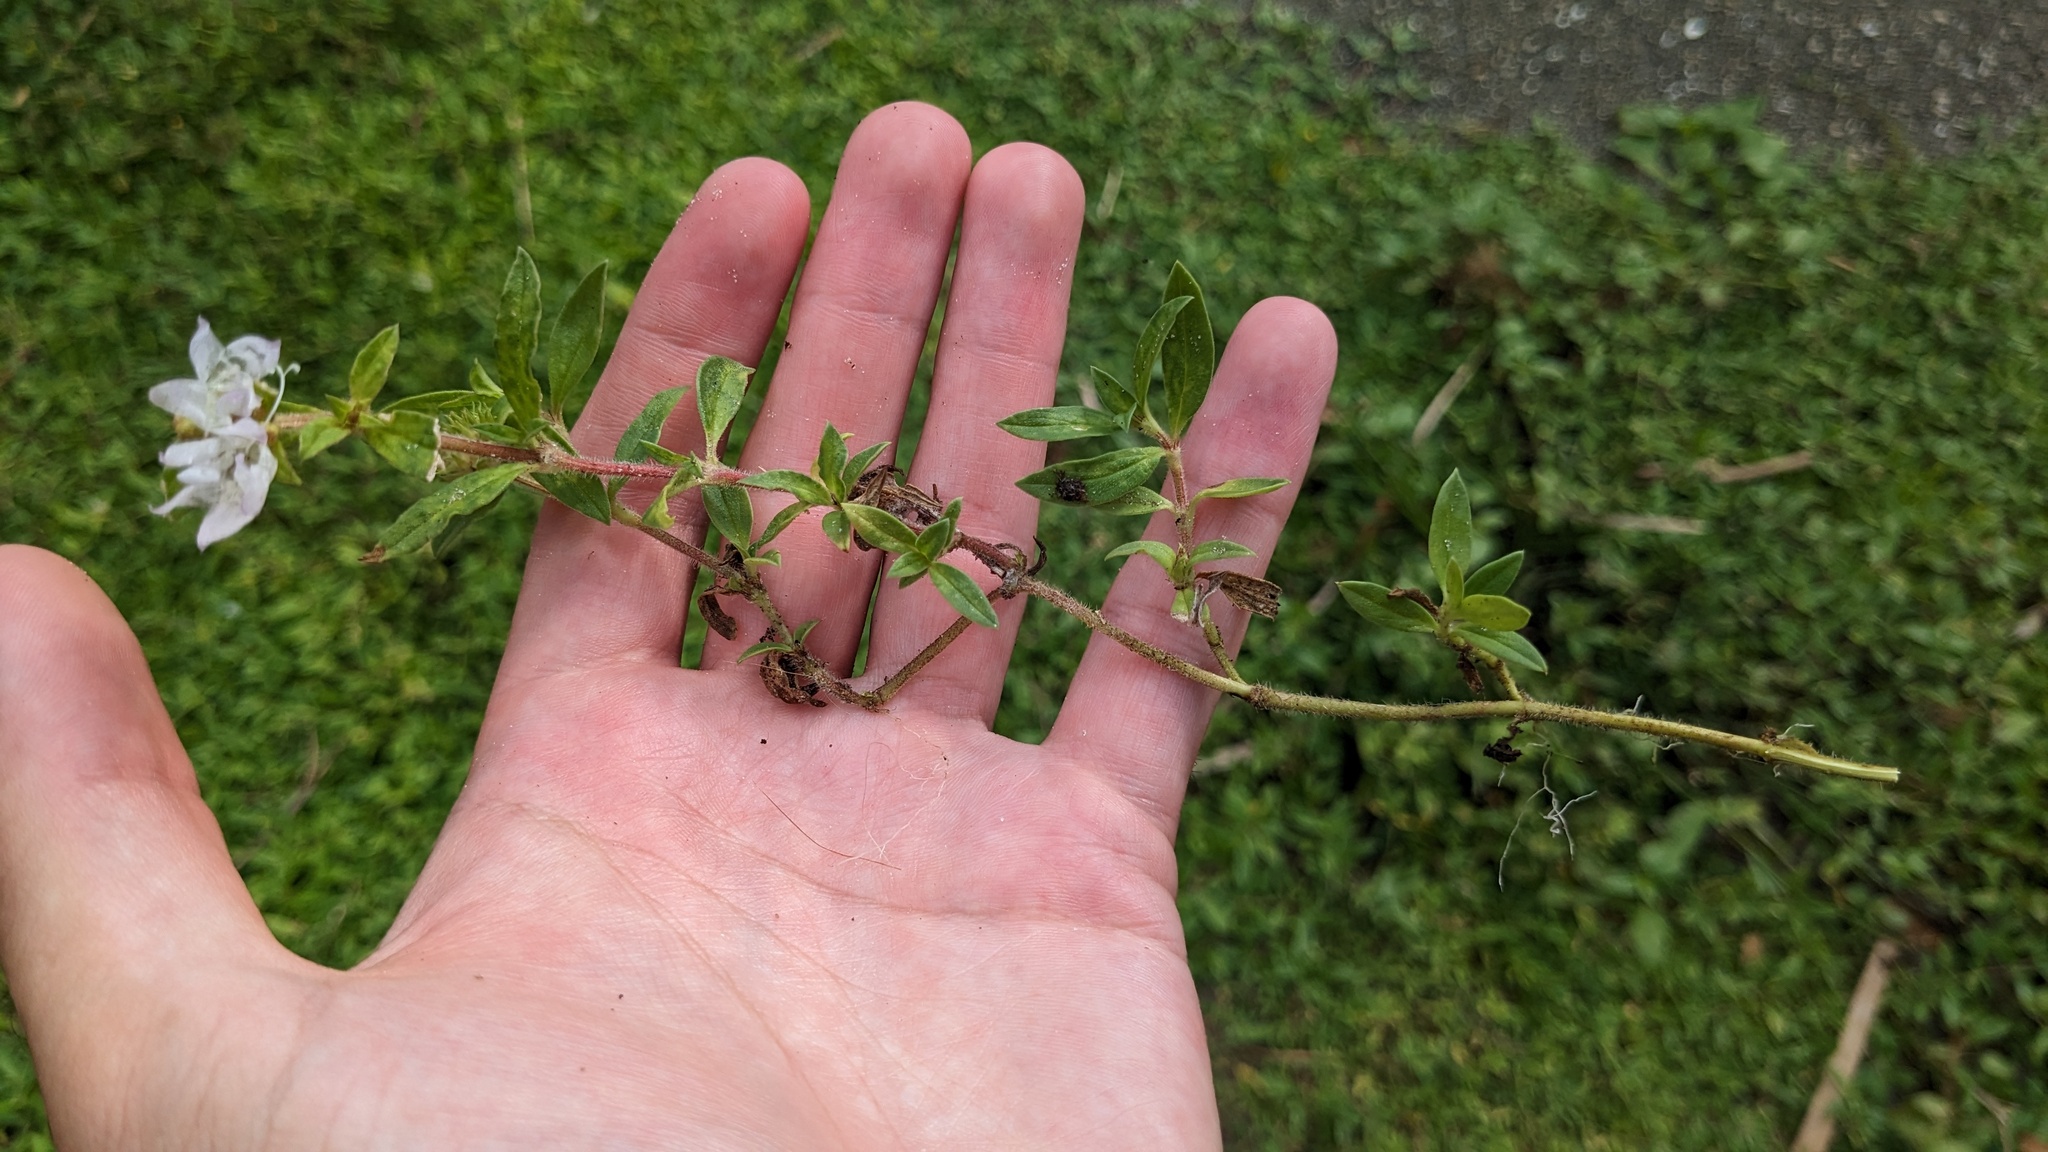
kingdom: Plantae
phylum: Tracheophyta
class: Magnoliopsida
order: Gentianales
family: Rubiaceae
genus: Richardia
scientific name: Richardia grandiflora
